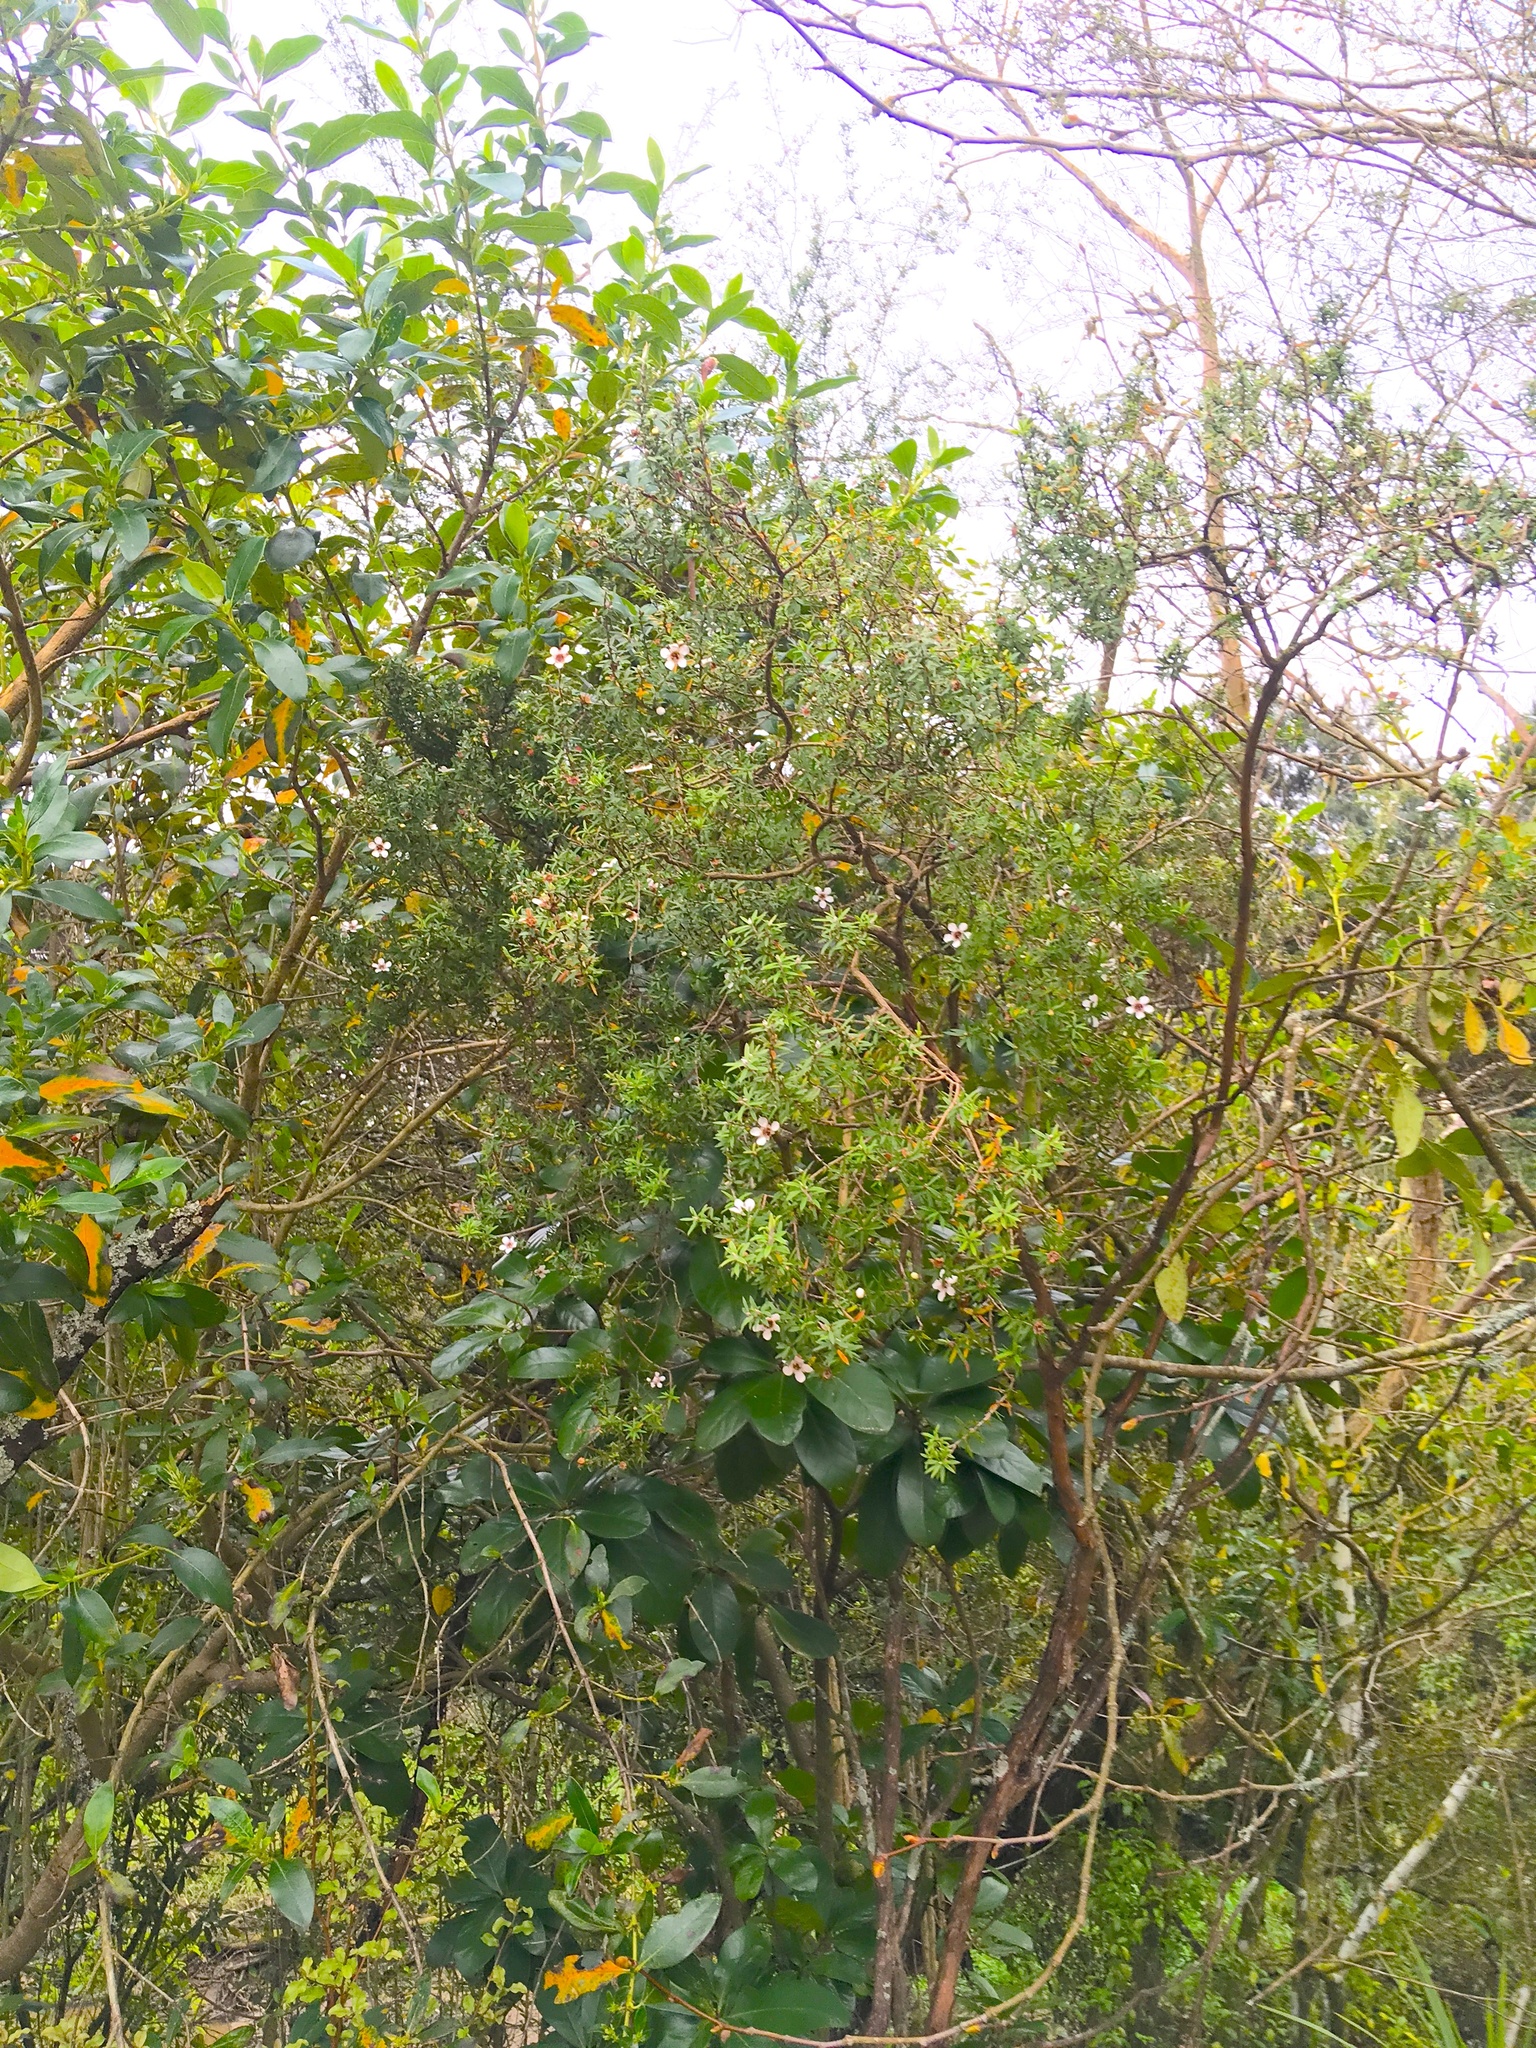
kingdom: Plantae
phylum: Tracheophyta
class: Magnoliopsida
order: Myrtales
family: Myrtaceae
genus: Leptospermum
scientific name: Leptospermum scoparium
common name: Broom tea-tree
